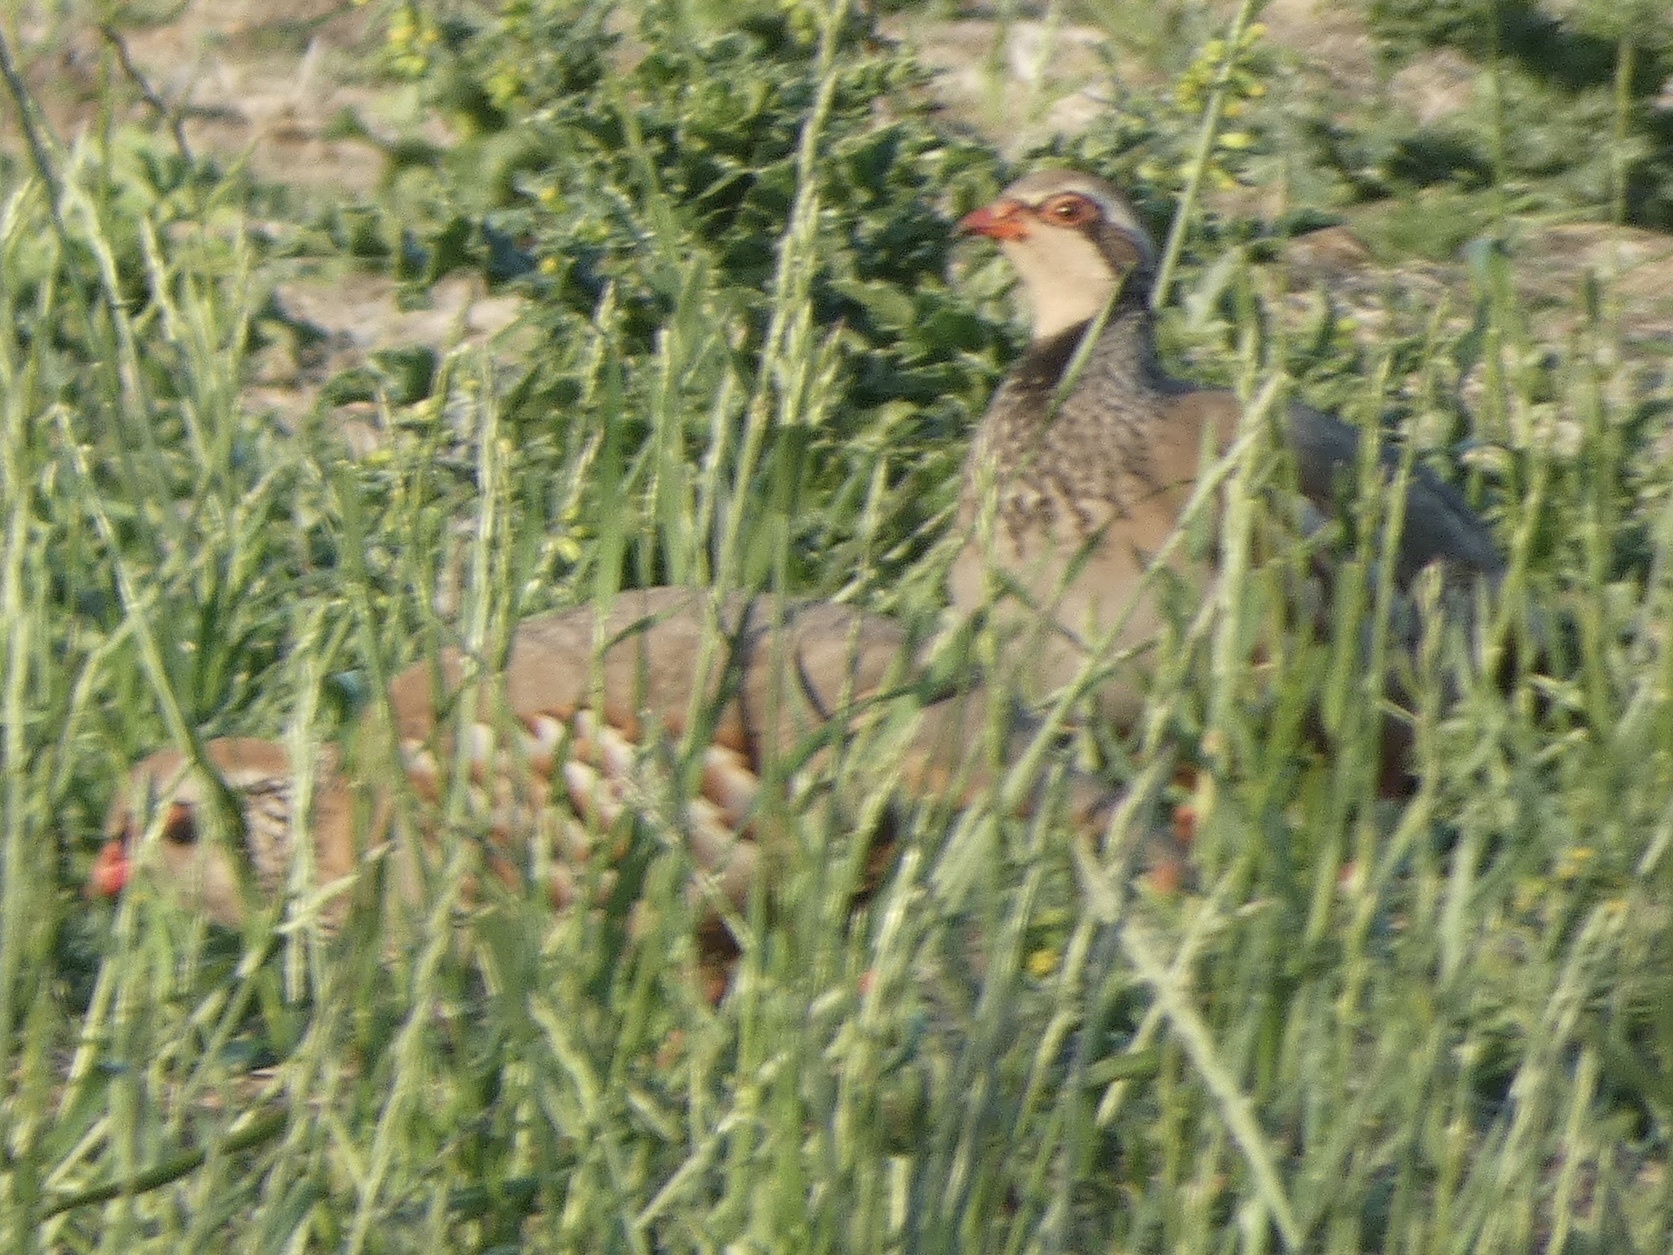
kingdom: Animalia
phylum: Chordata
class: Aves
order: Galliformes
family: Phasianidae
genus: Alectoris
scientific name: Alectoris rufa
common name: Red-legged partridge
